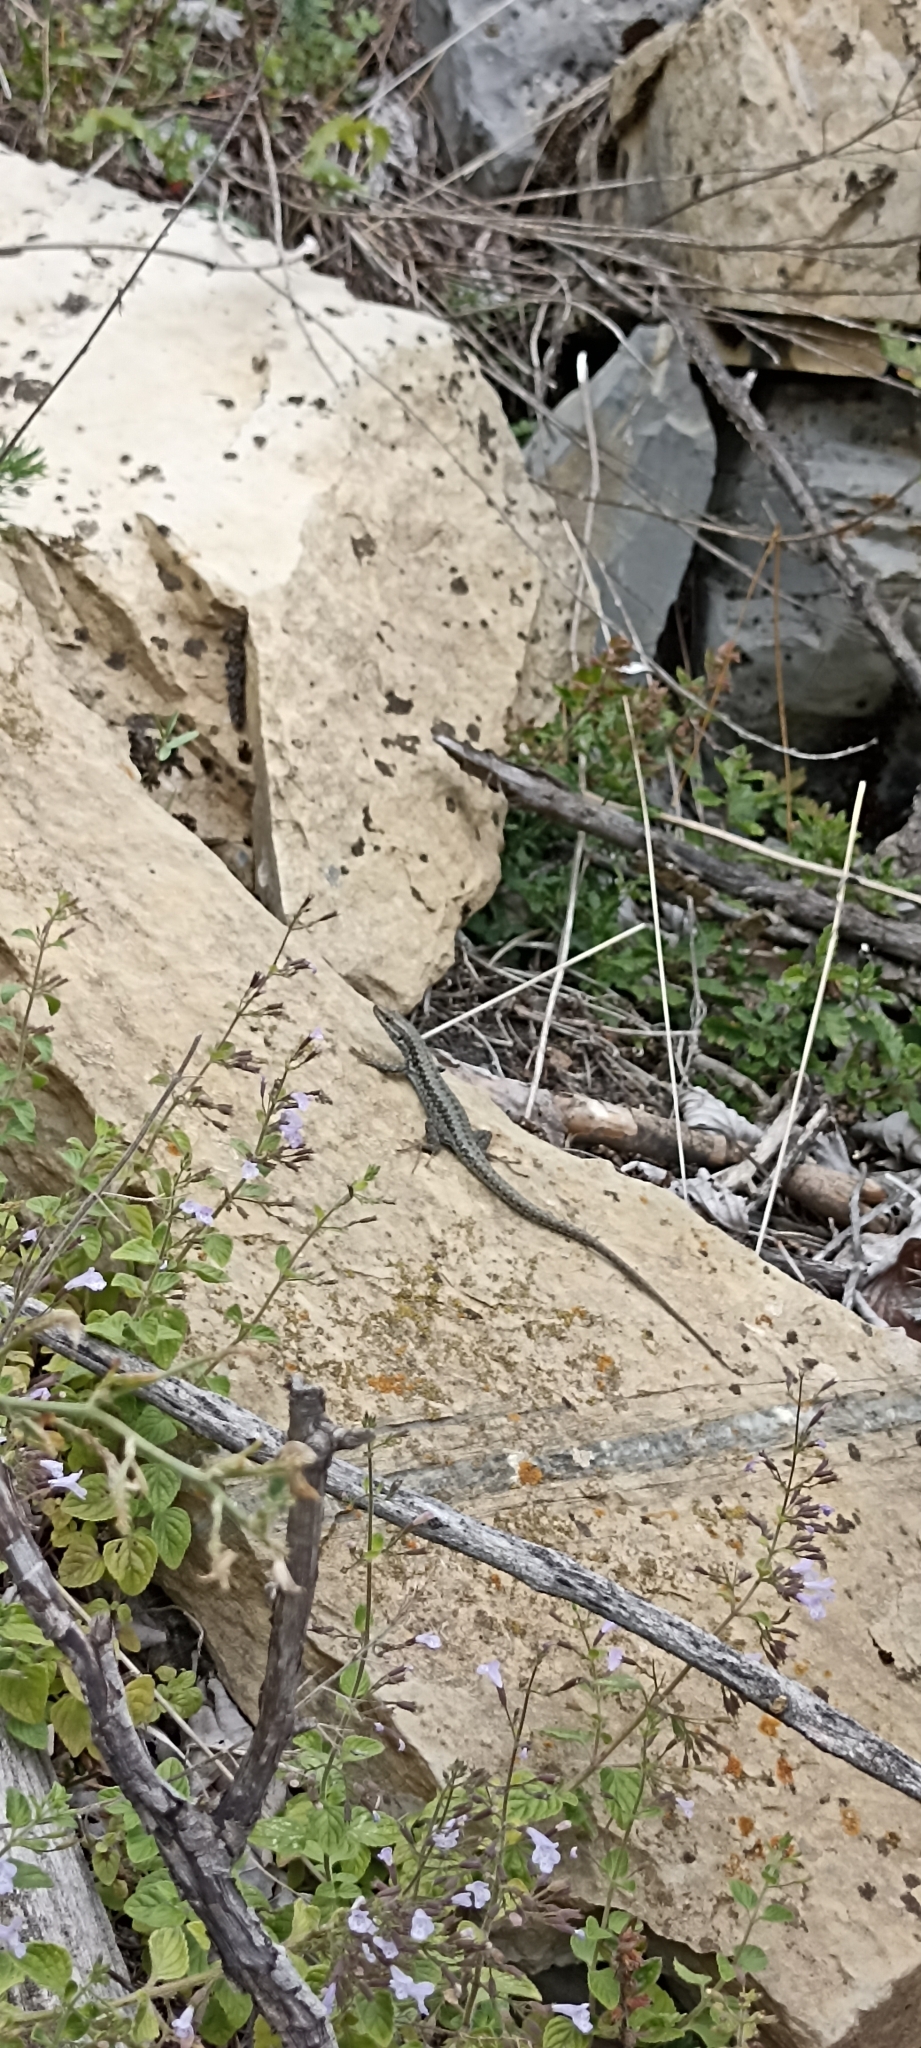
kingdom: Animalia
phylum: Chordata
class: Squamata
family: Lacertidae
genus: Podarcis
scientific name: Podarcis muralis
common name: Common wall lizard
